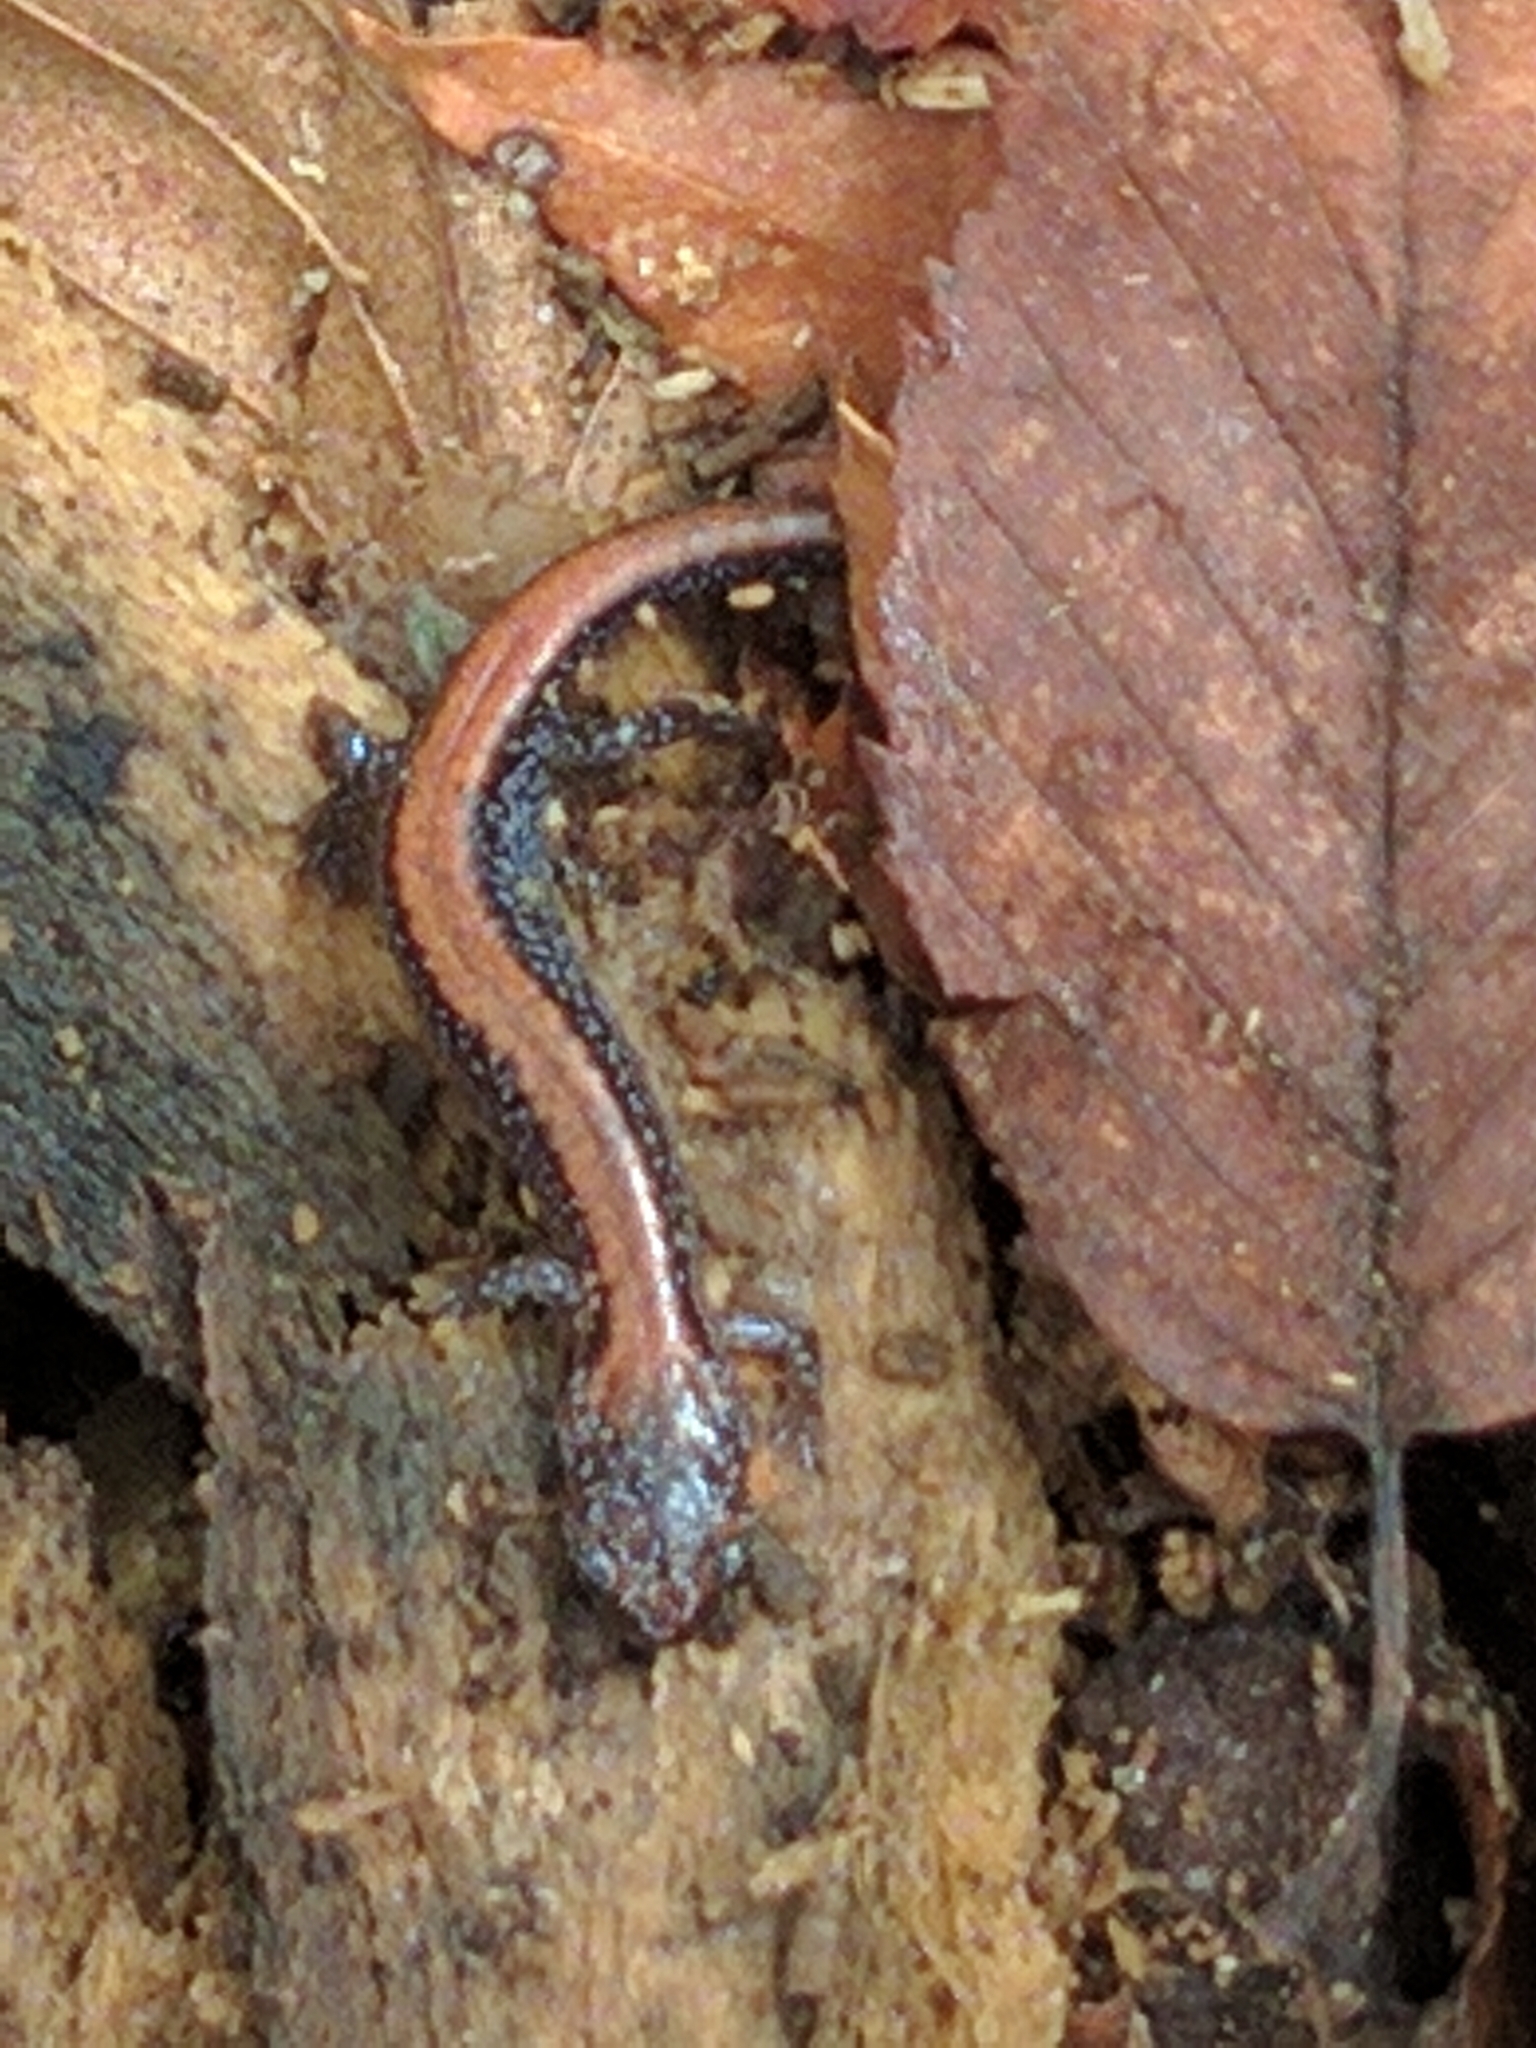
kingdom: Animalia
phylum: Chordata
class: Amphibia
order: Caudata
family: Plethodontidae
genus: Plethodon
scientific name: Plethodon cinereus
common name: Redback salamander
